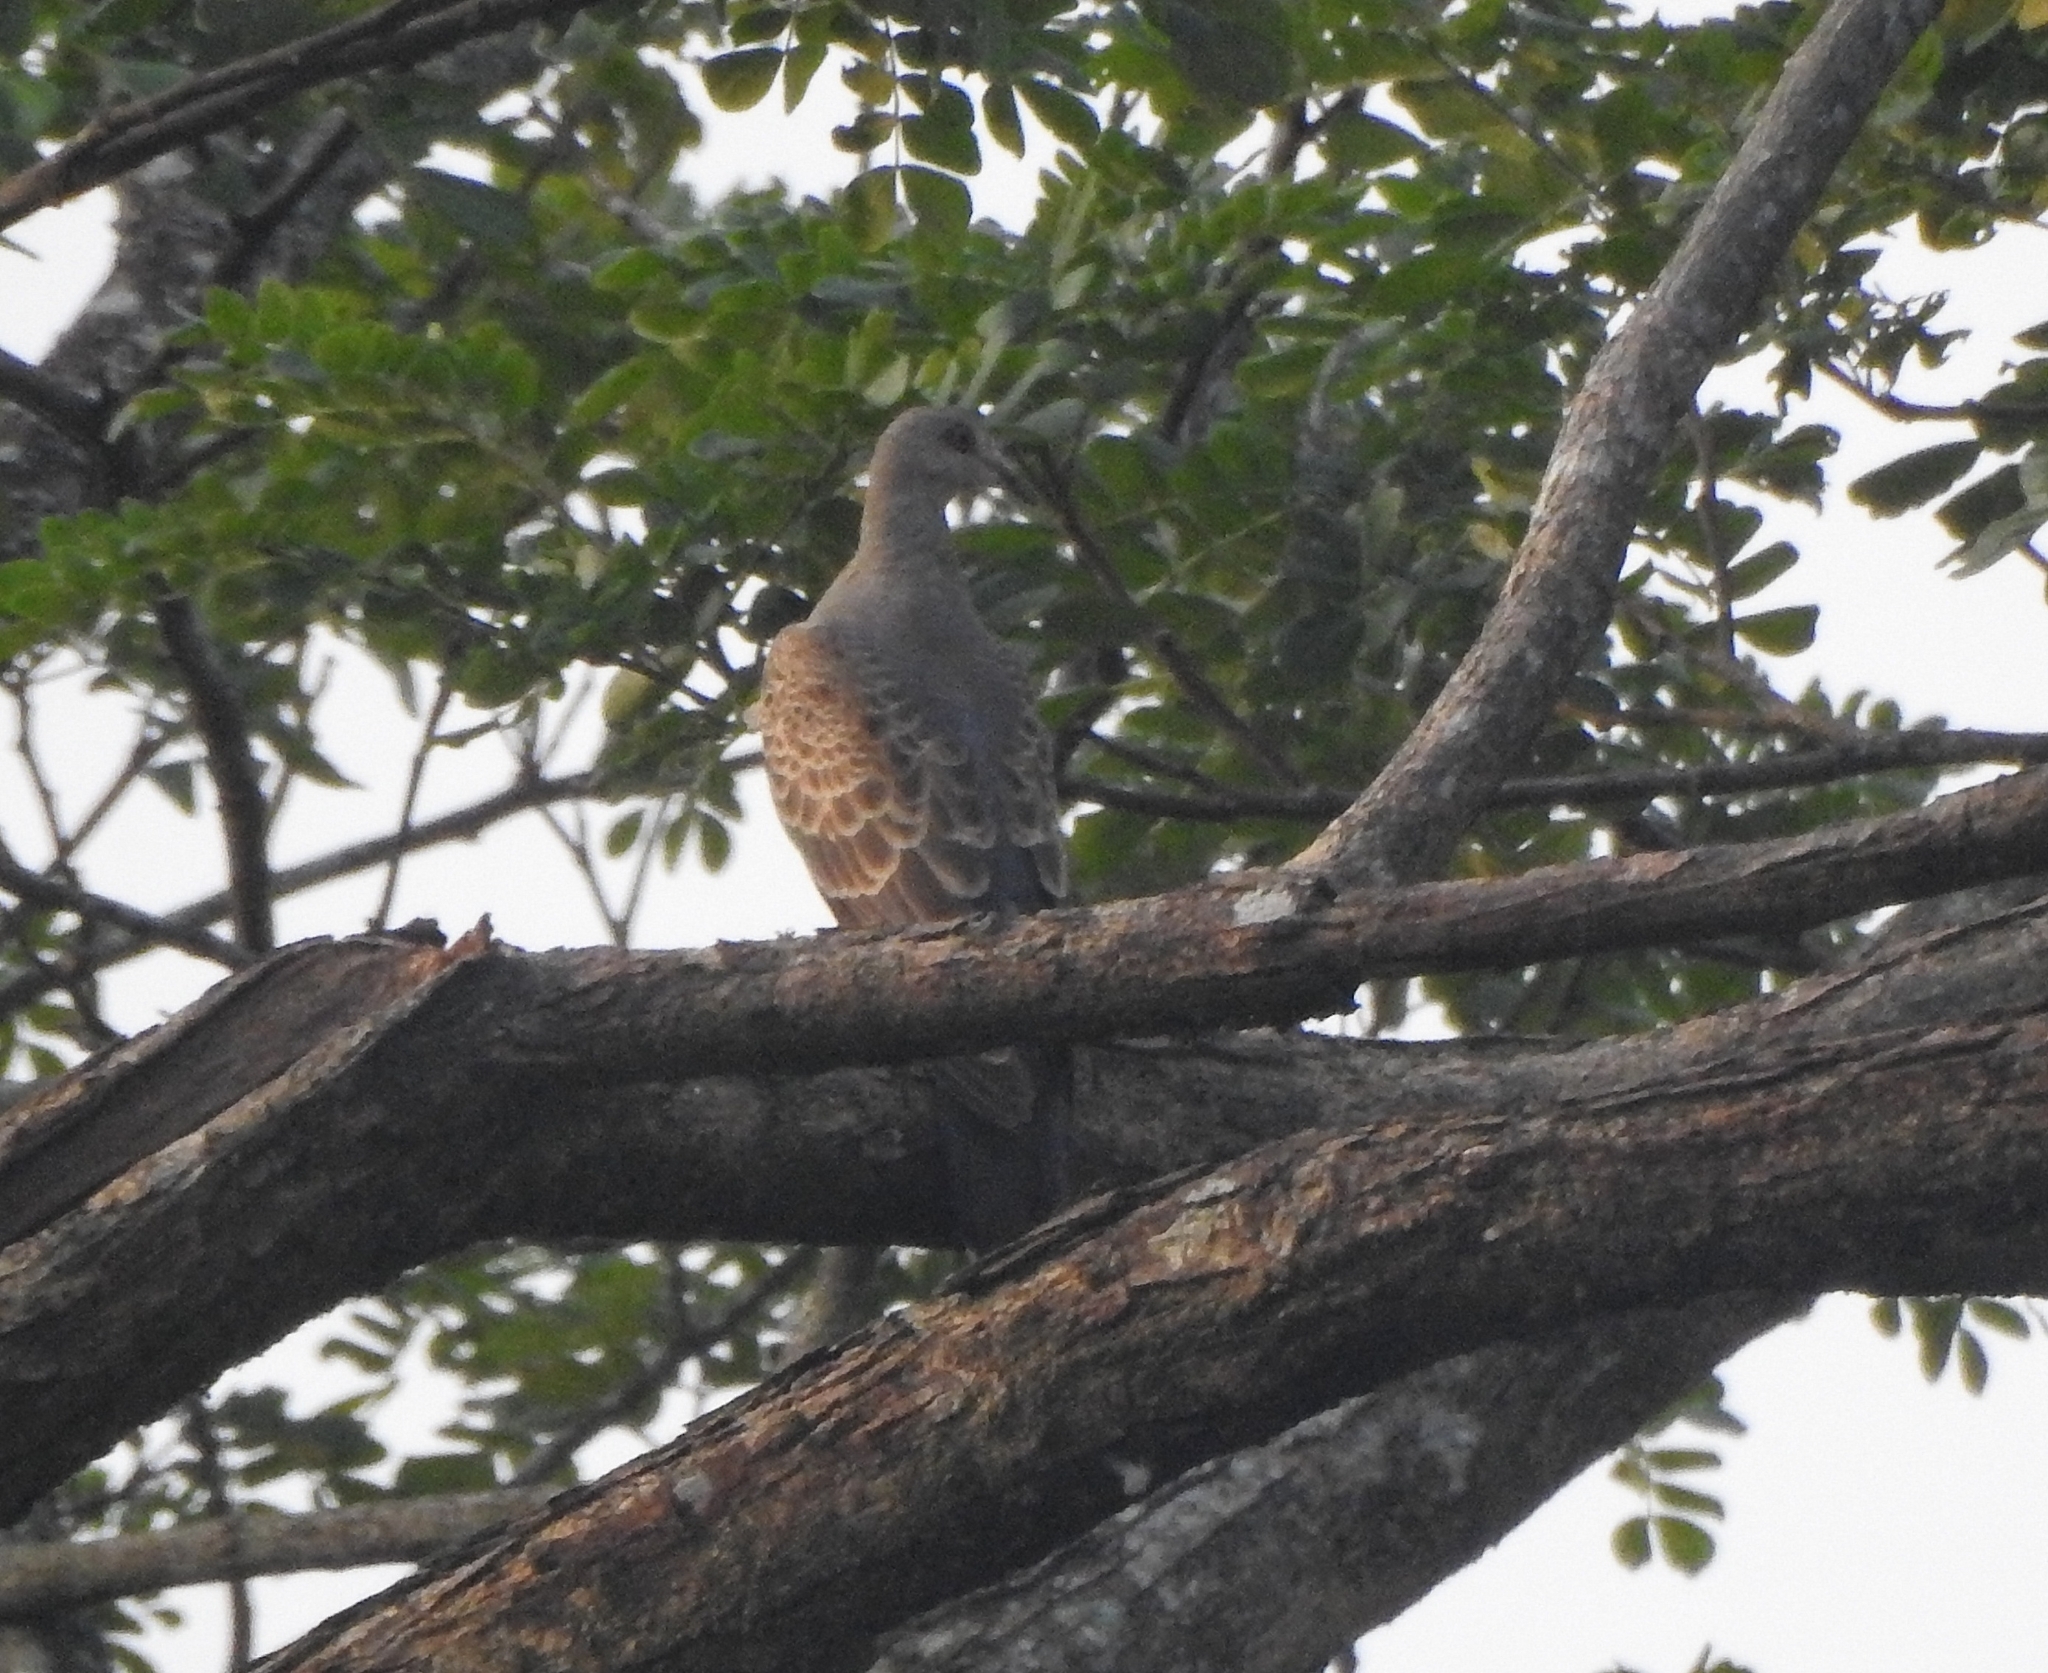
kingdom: Animalia
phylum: Chordata
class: Aves
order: Columbiformes
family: Columbidae
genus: Streptopelia
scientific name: Streptopelia orientalis
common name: Oriental turtle dove
